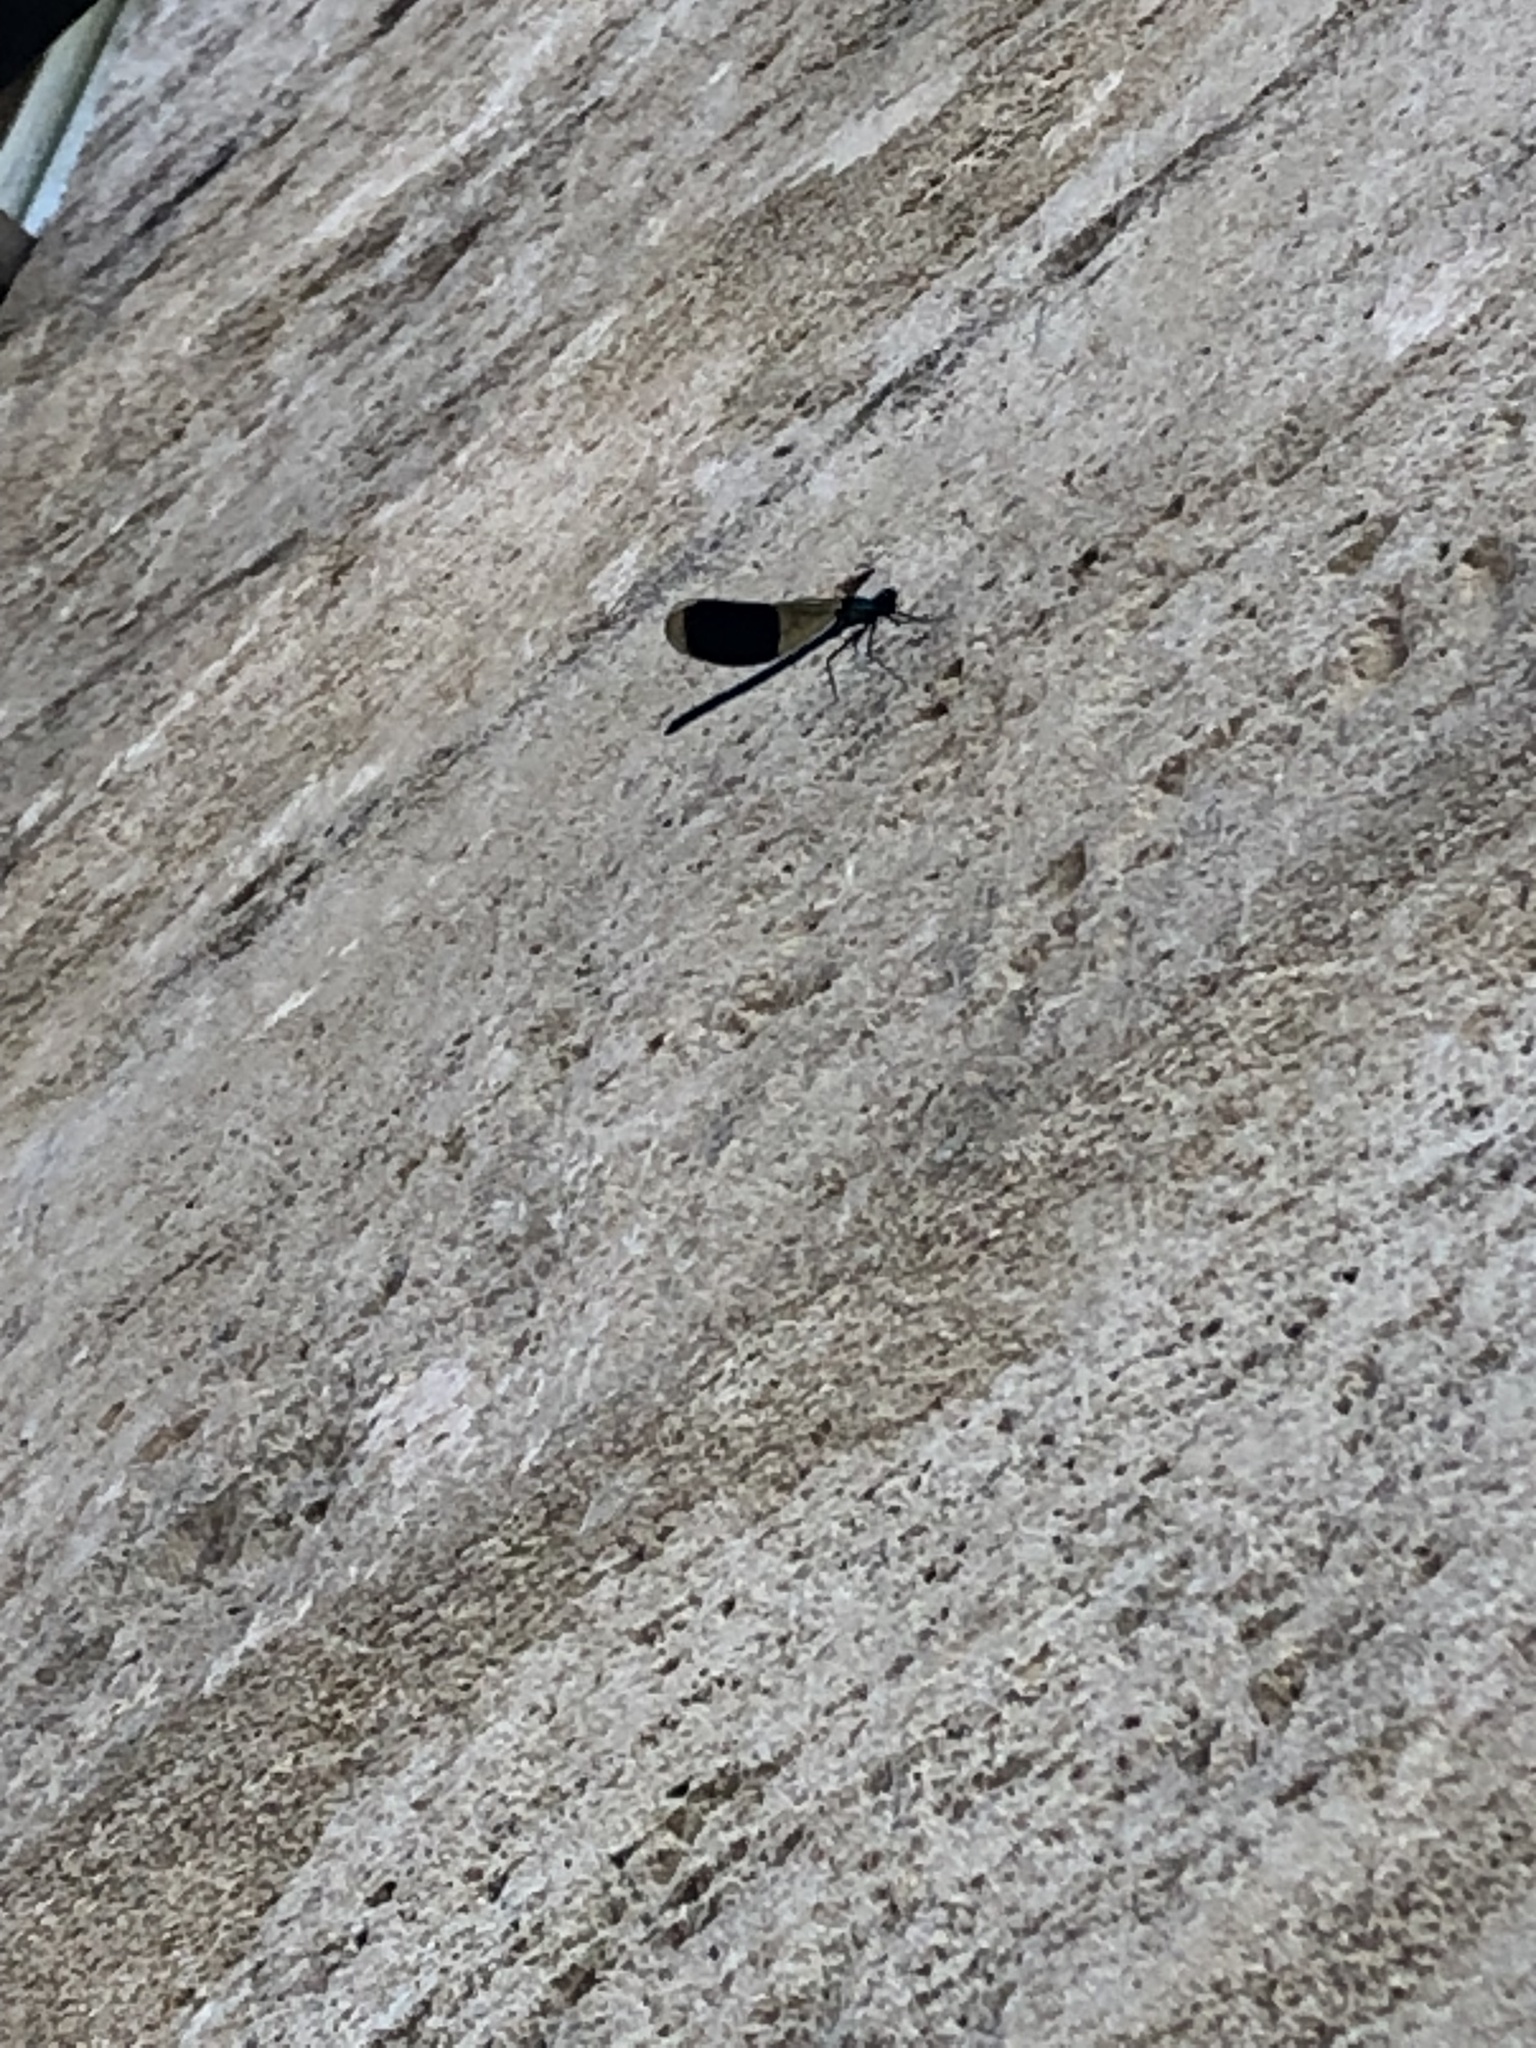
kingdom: Animalia
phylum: Arthropoda
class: Insecta
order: Odonata
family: Calopterygidae
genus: Calopteryx
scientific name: Calopteryx splendens
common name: Banded demoiselle
